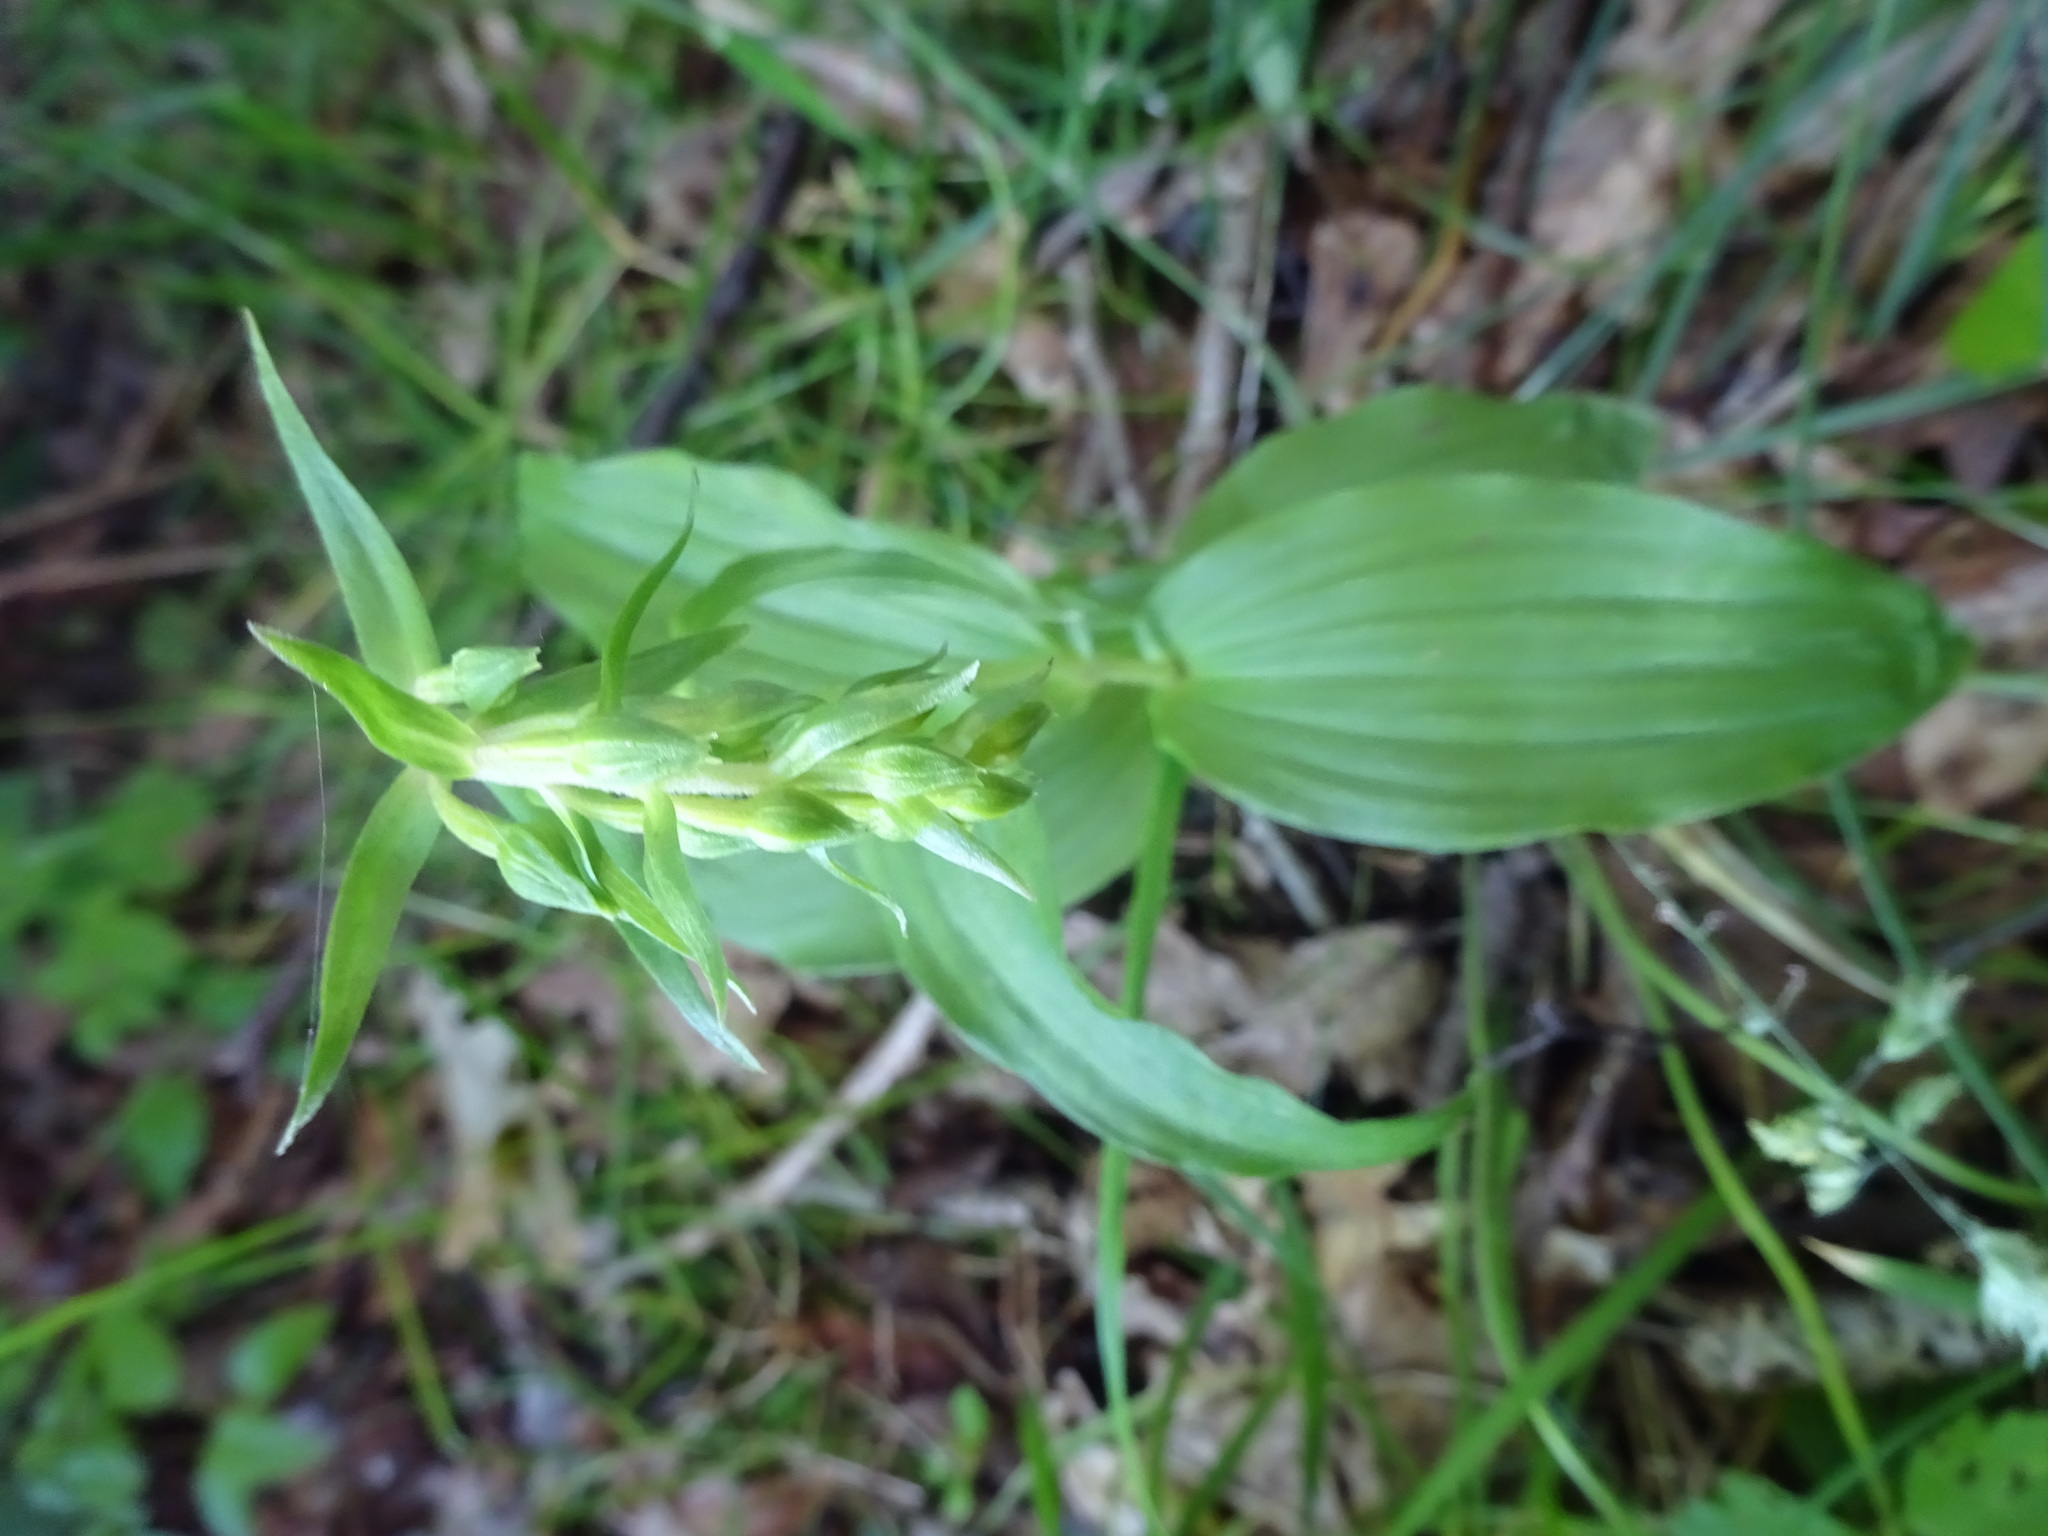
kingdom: Plantae
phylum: Tracheophyta
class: Liliopsida
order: Asparagales
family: Orchidaceae
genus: Epipactis
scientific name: Epipactis helleborine
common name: Broad-leaved helleborine
